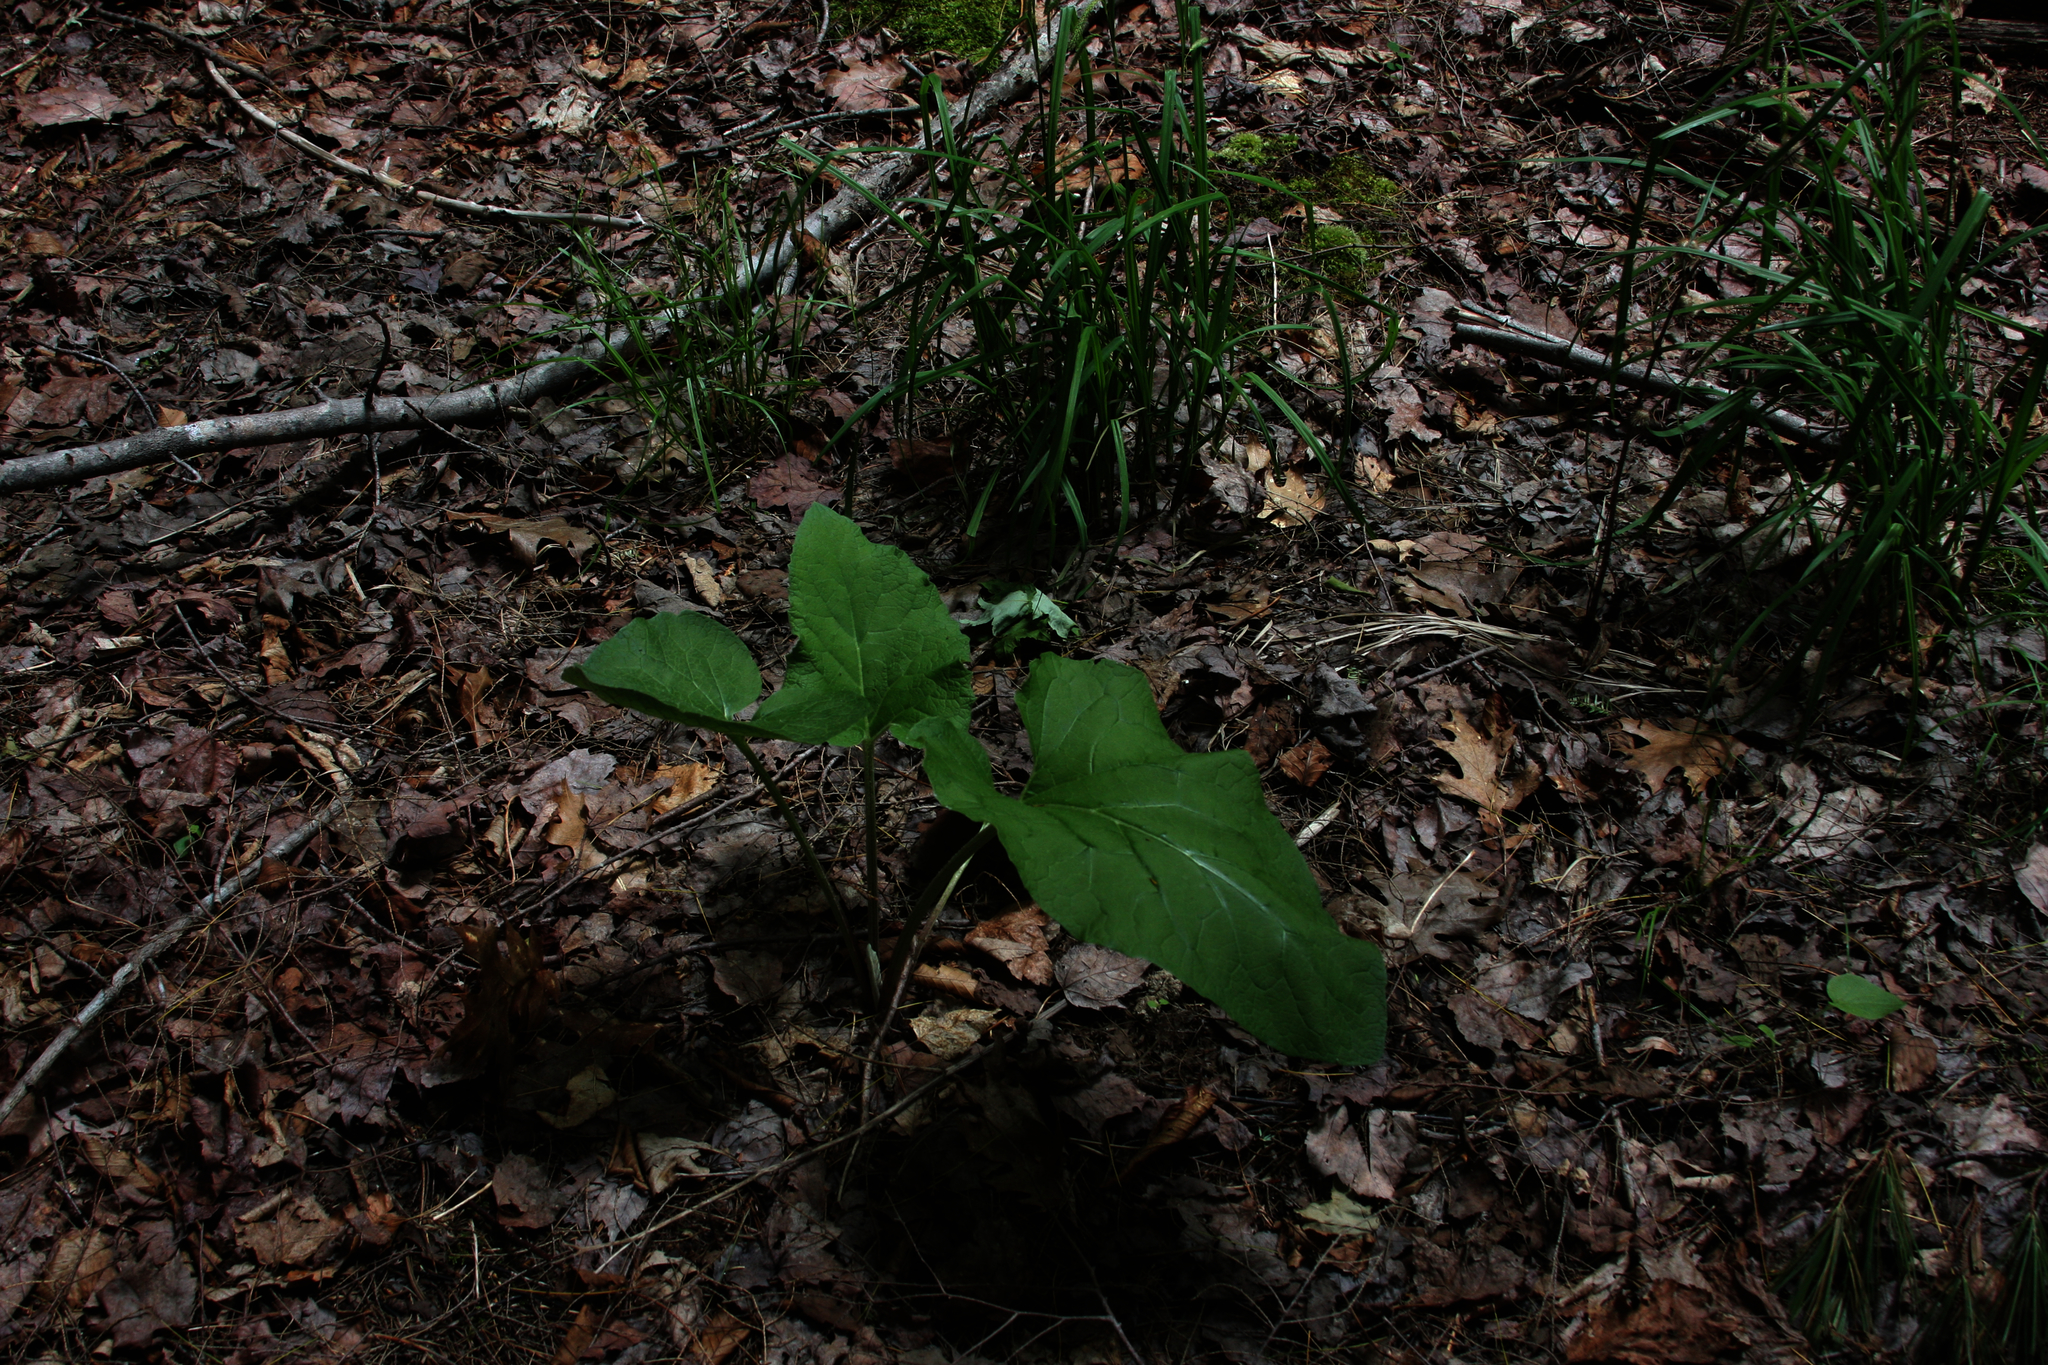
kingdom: Plantae
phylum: Tracheophyta
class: Magnoliopsida
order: Asterales
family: Asteraceae
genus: Arctium
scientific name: Arctium
